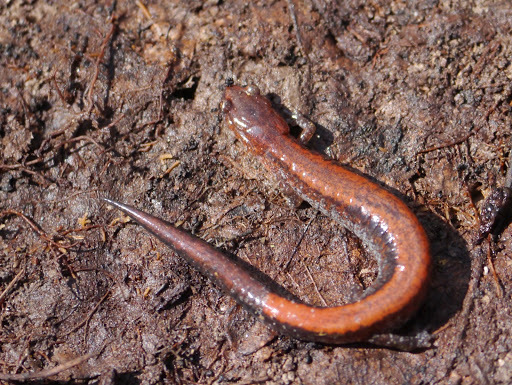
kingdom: Animalia
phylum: Chordata
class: Amphibia
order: Caudata
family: Plethodontidae
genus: Plethodon
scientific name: Plethodon cinereus
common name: Redback salamander
